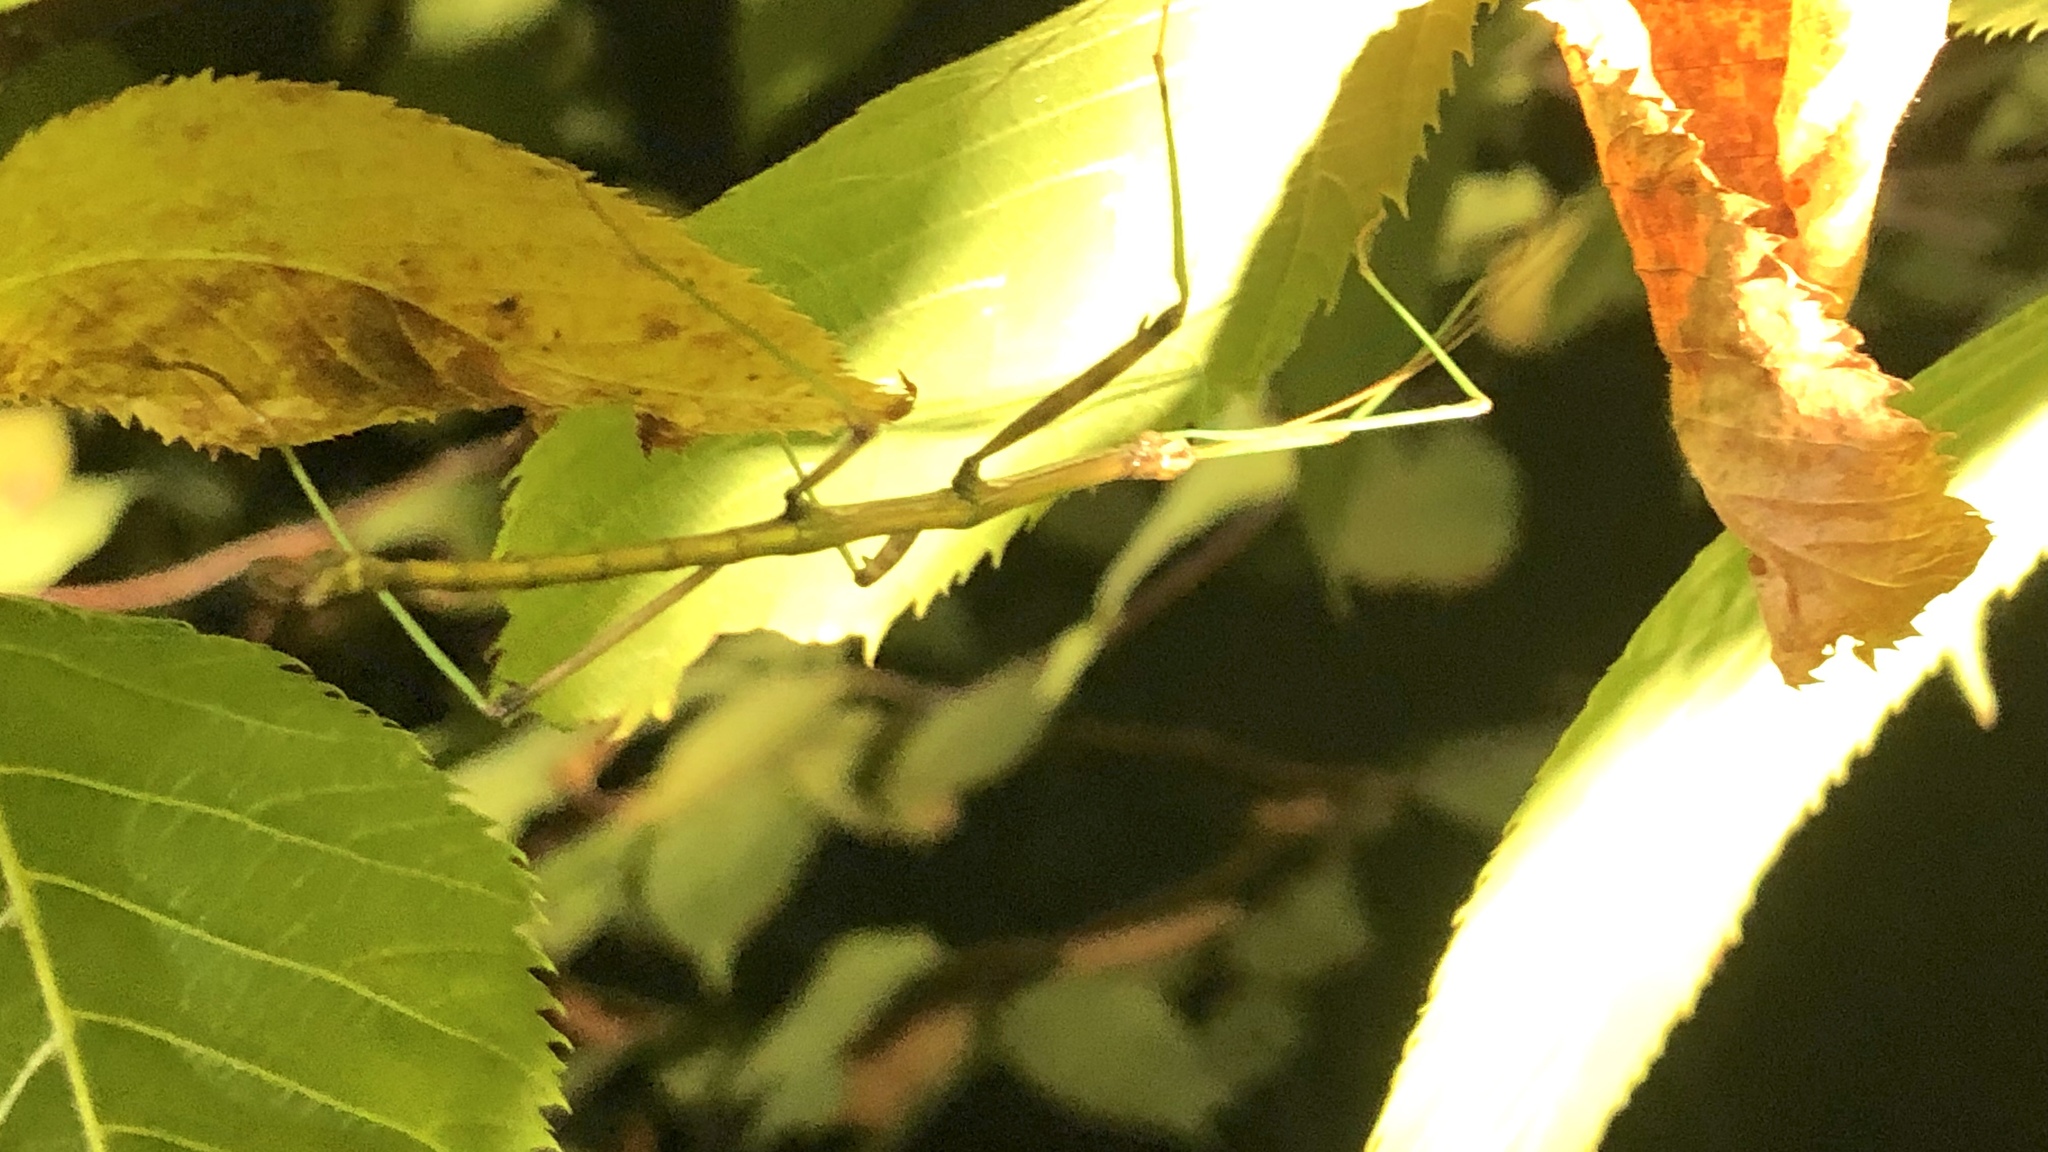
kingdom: Animalia
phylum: Arthropoda
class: Insecta
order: Phasmida
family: Diapheromeridae
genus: Diapheromera
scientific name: Diapheromera femorata
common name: Common american walkingstick
